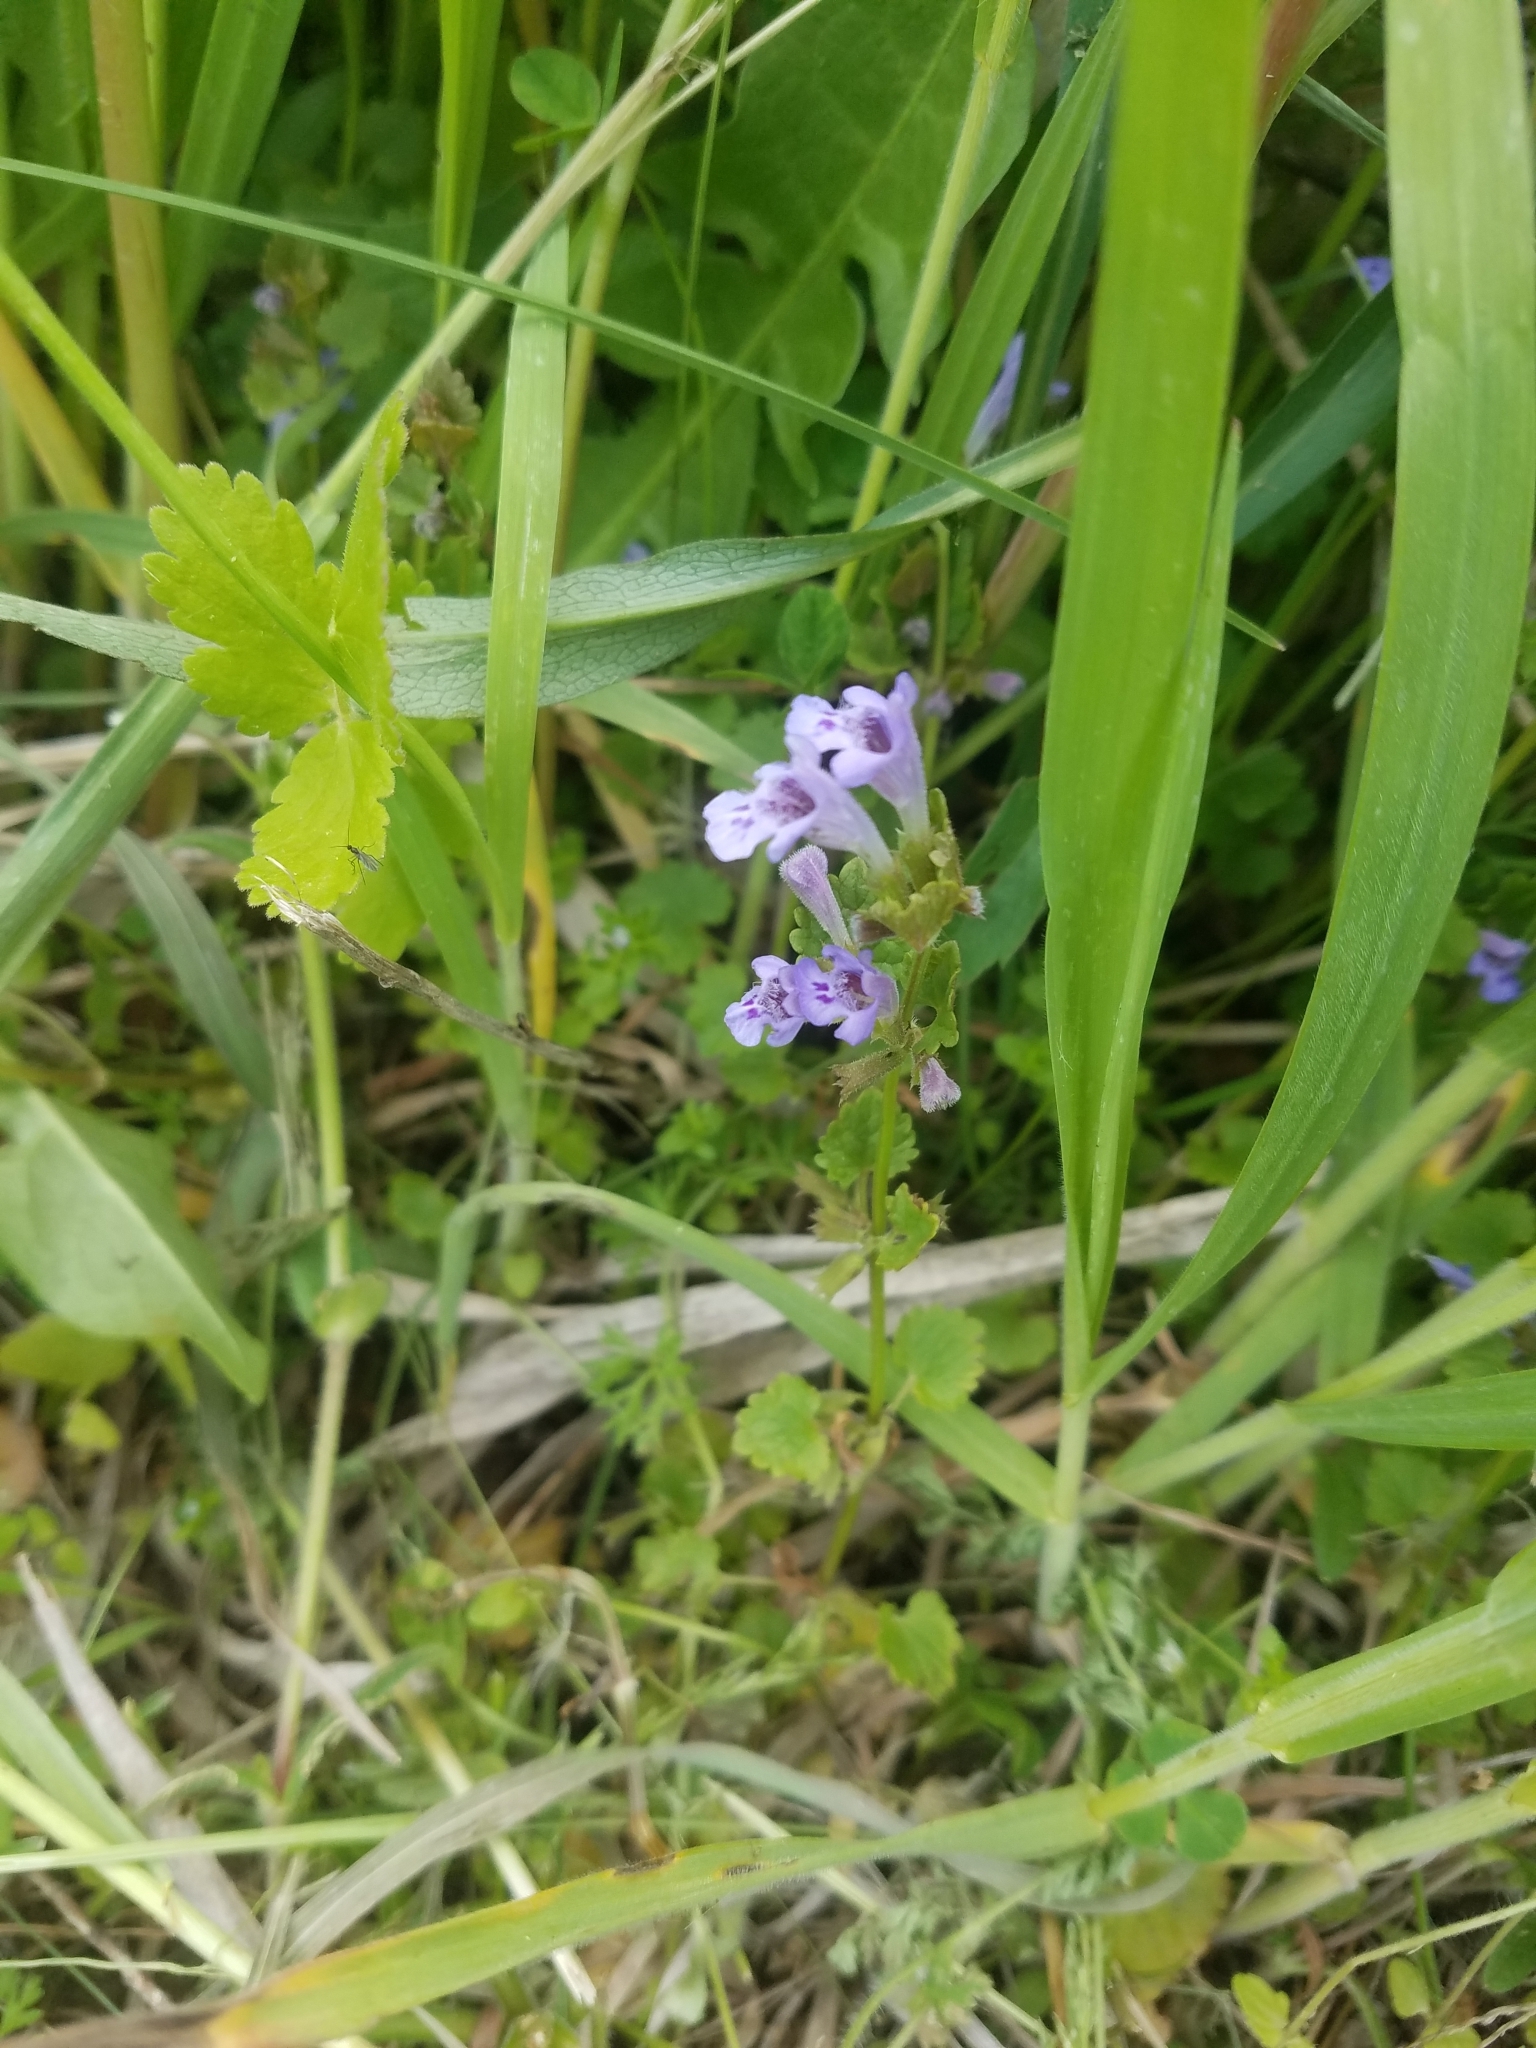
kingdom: Plantae
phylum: Tracheophyta
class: Magnoliopsida
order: Lamiales
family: Lamiaceae
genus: Glechoma
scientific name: Glechoma hederacea
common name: Ground ivy
